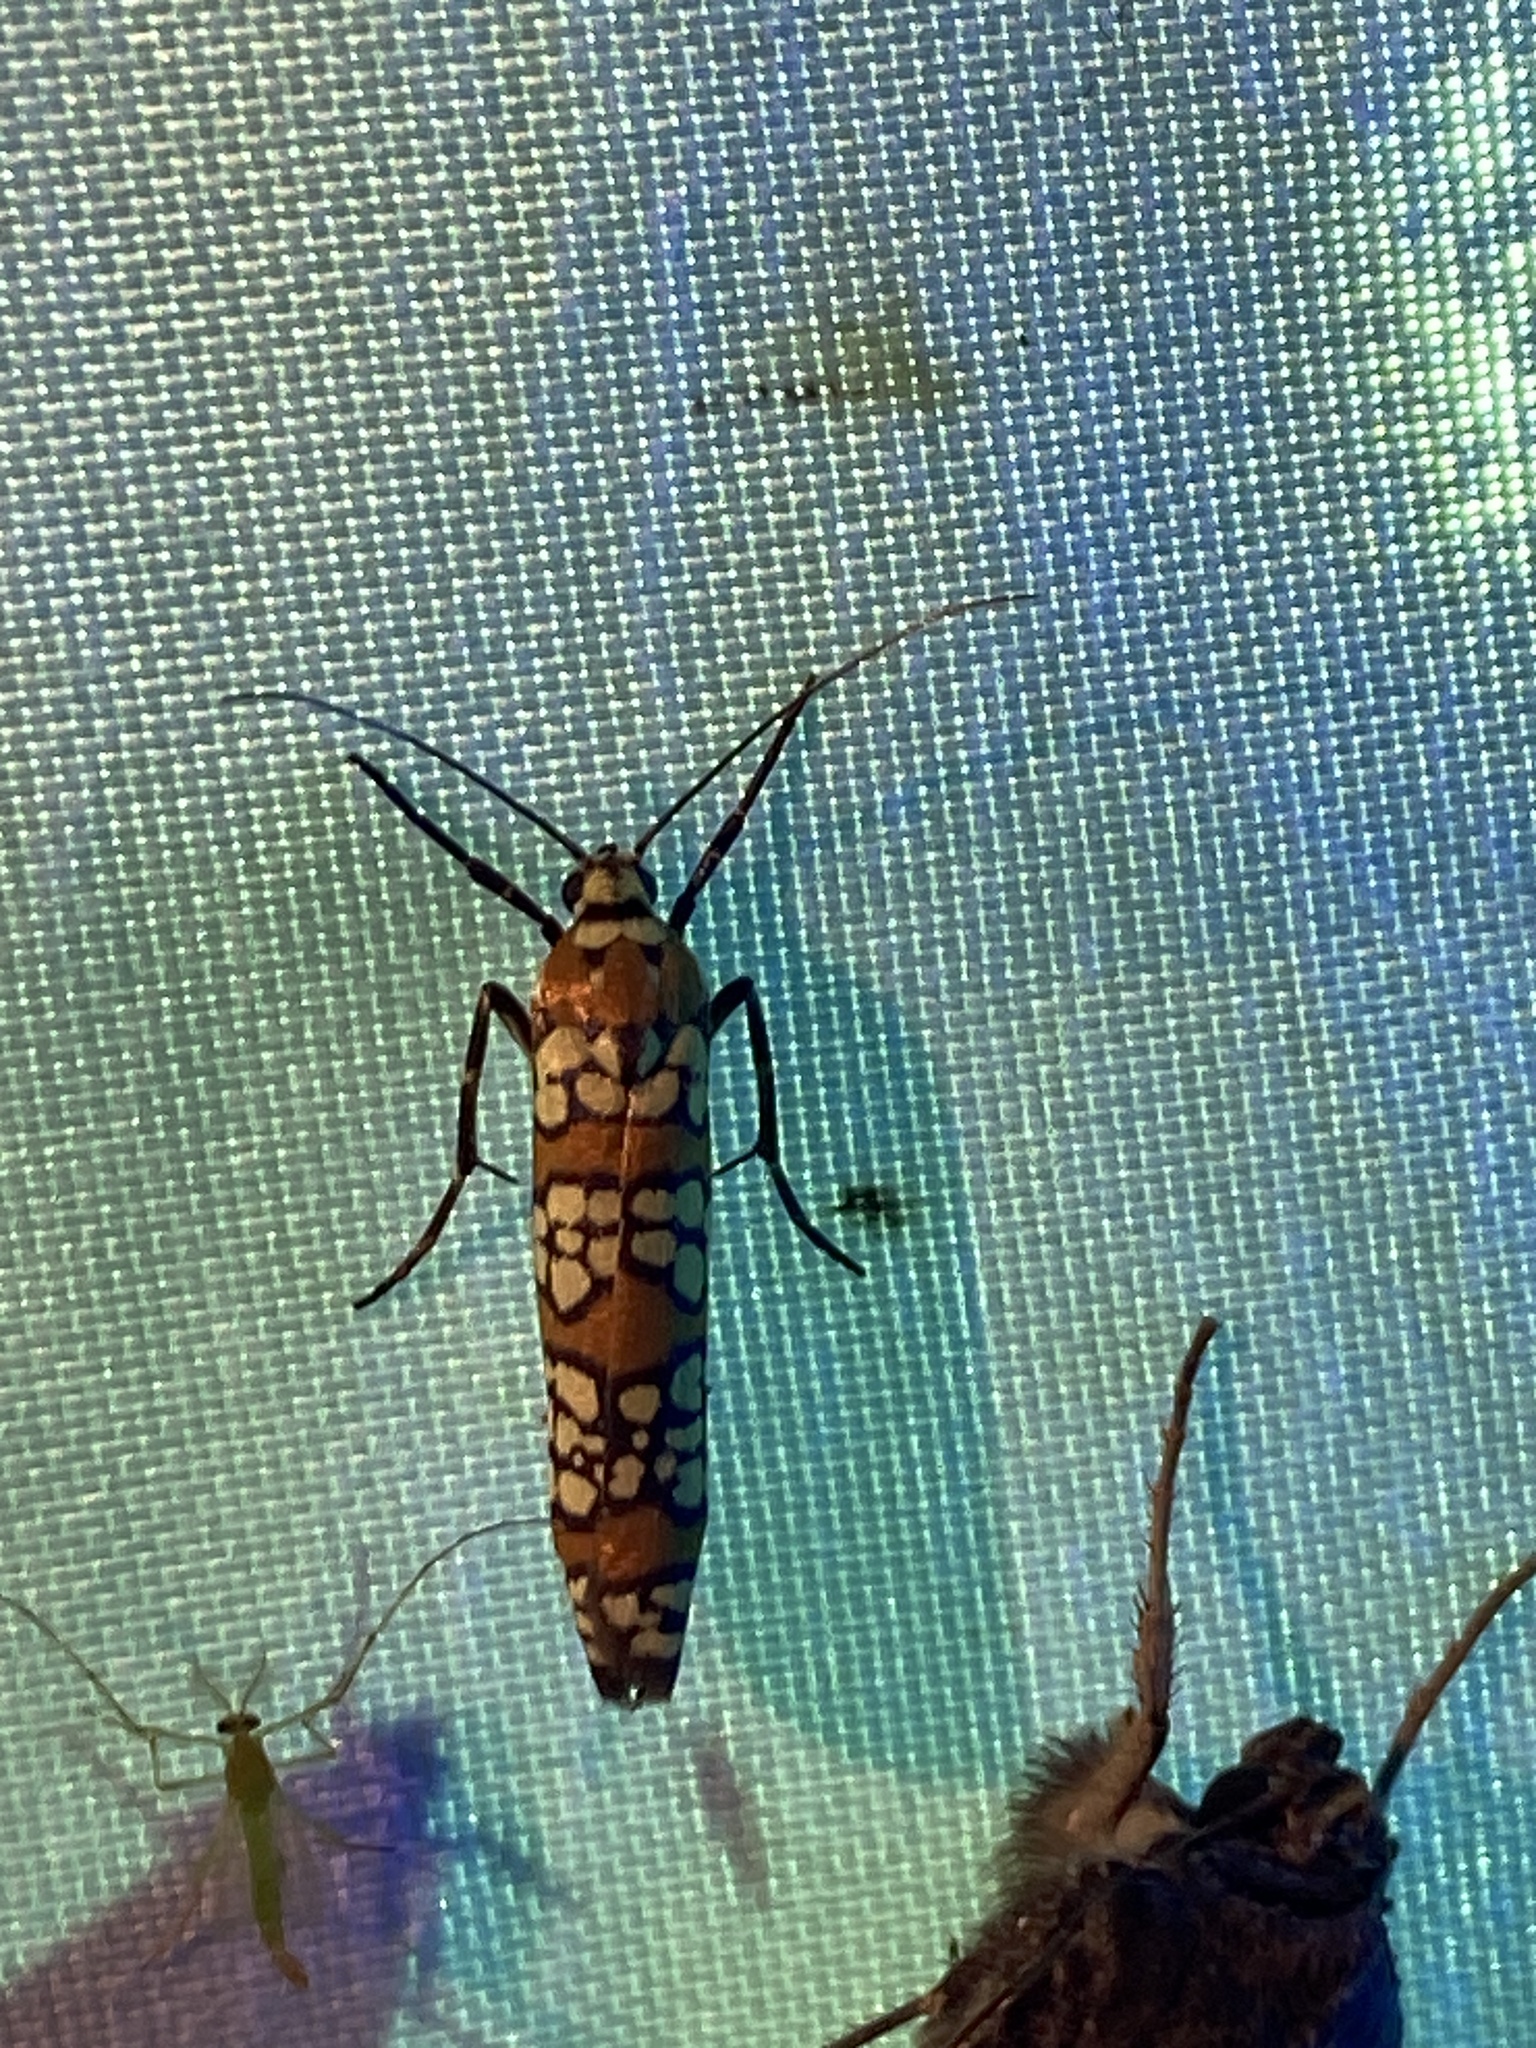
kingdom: Animalia
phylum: Arthropoda
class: Insecta
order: Lepidoptera
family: Attevidae
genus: Atteva
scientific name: Atteva punctella
